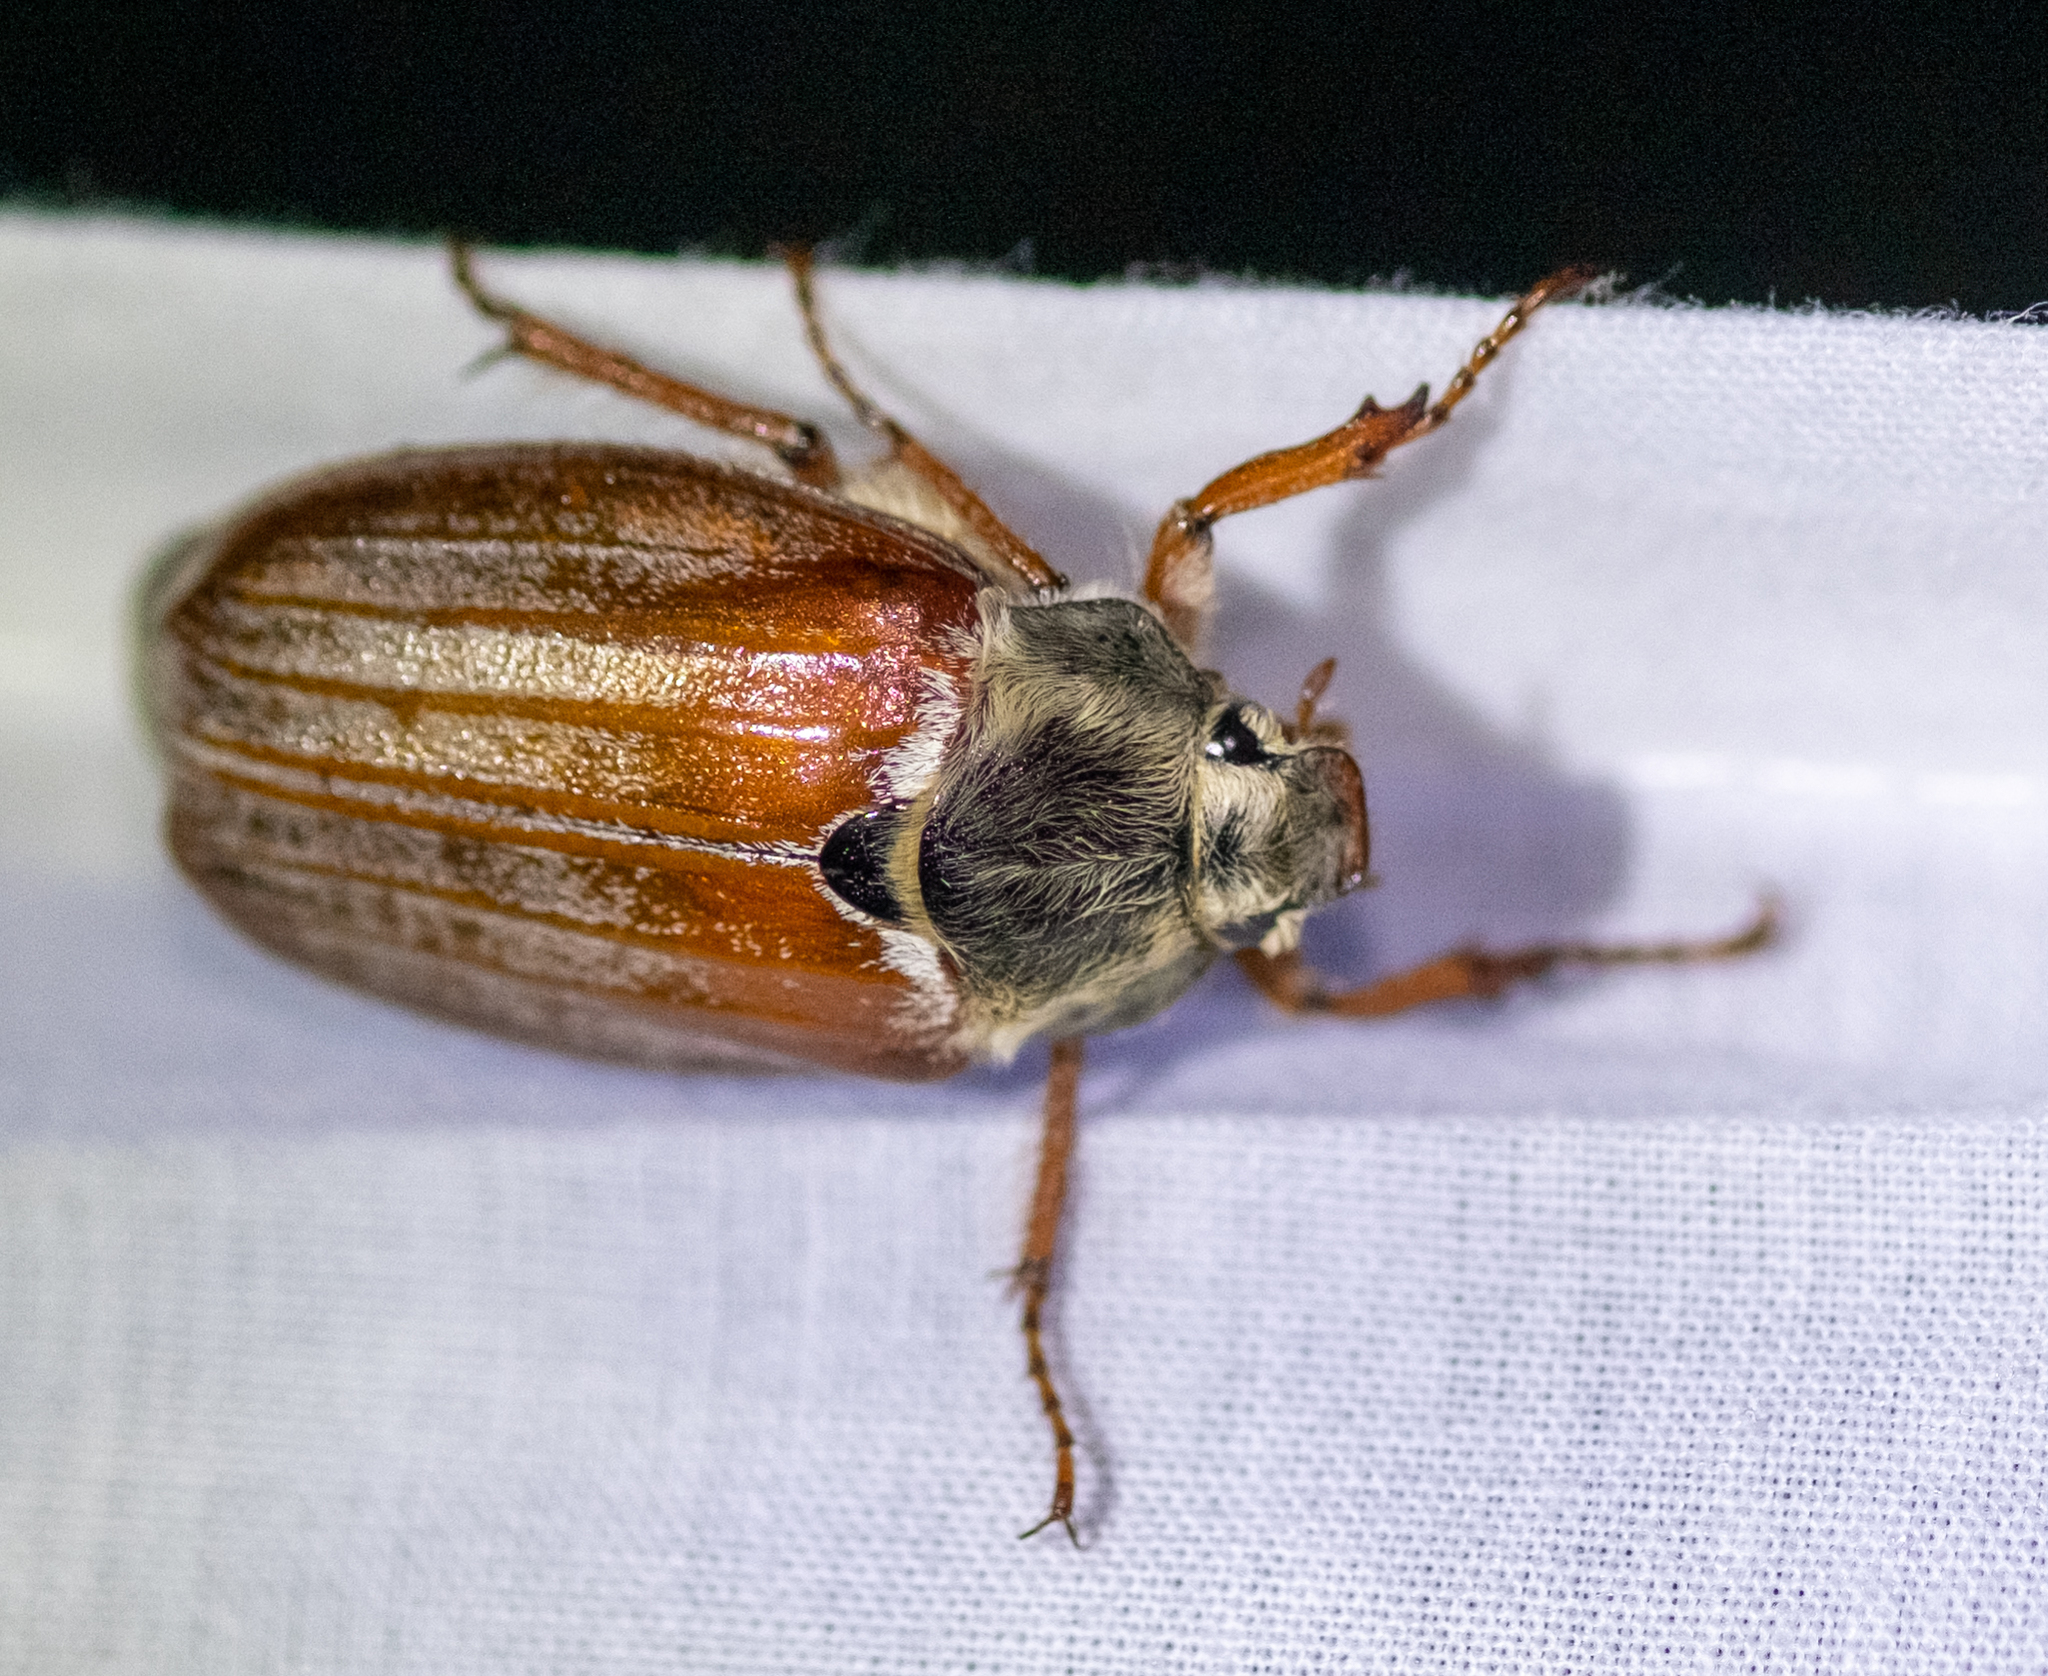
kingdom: Animalia
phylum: Arthropoda
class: Insecta
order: Coleoptera
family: Scarabaeidae
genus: Melolontha
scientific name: Melolontha melolontha
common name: Cockchafer maybeetle
